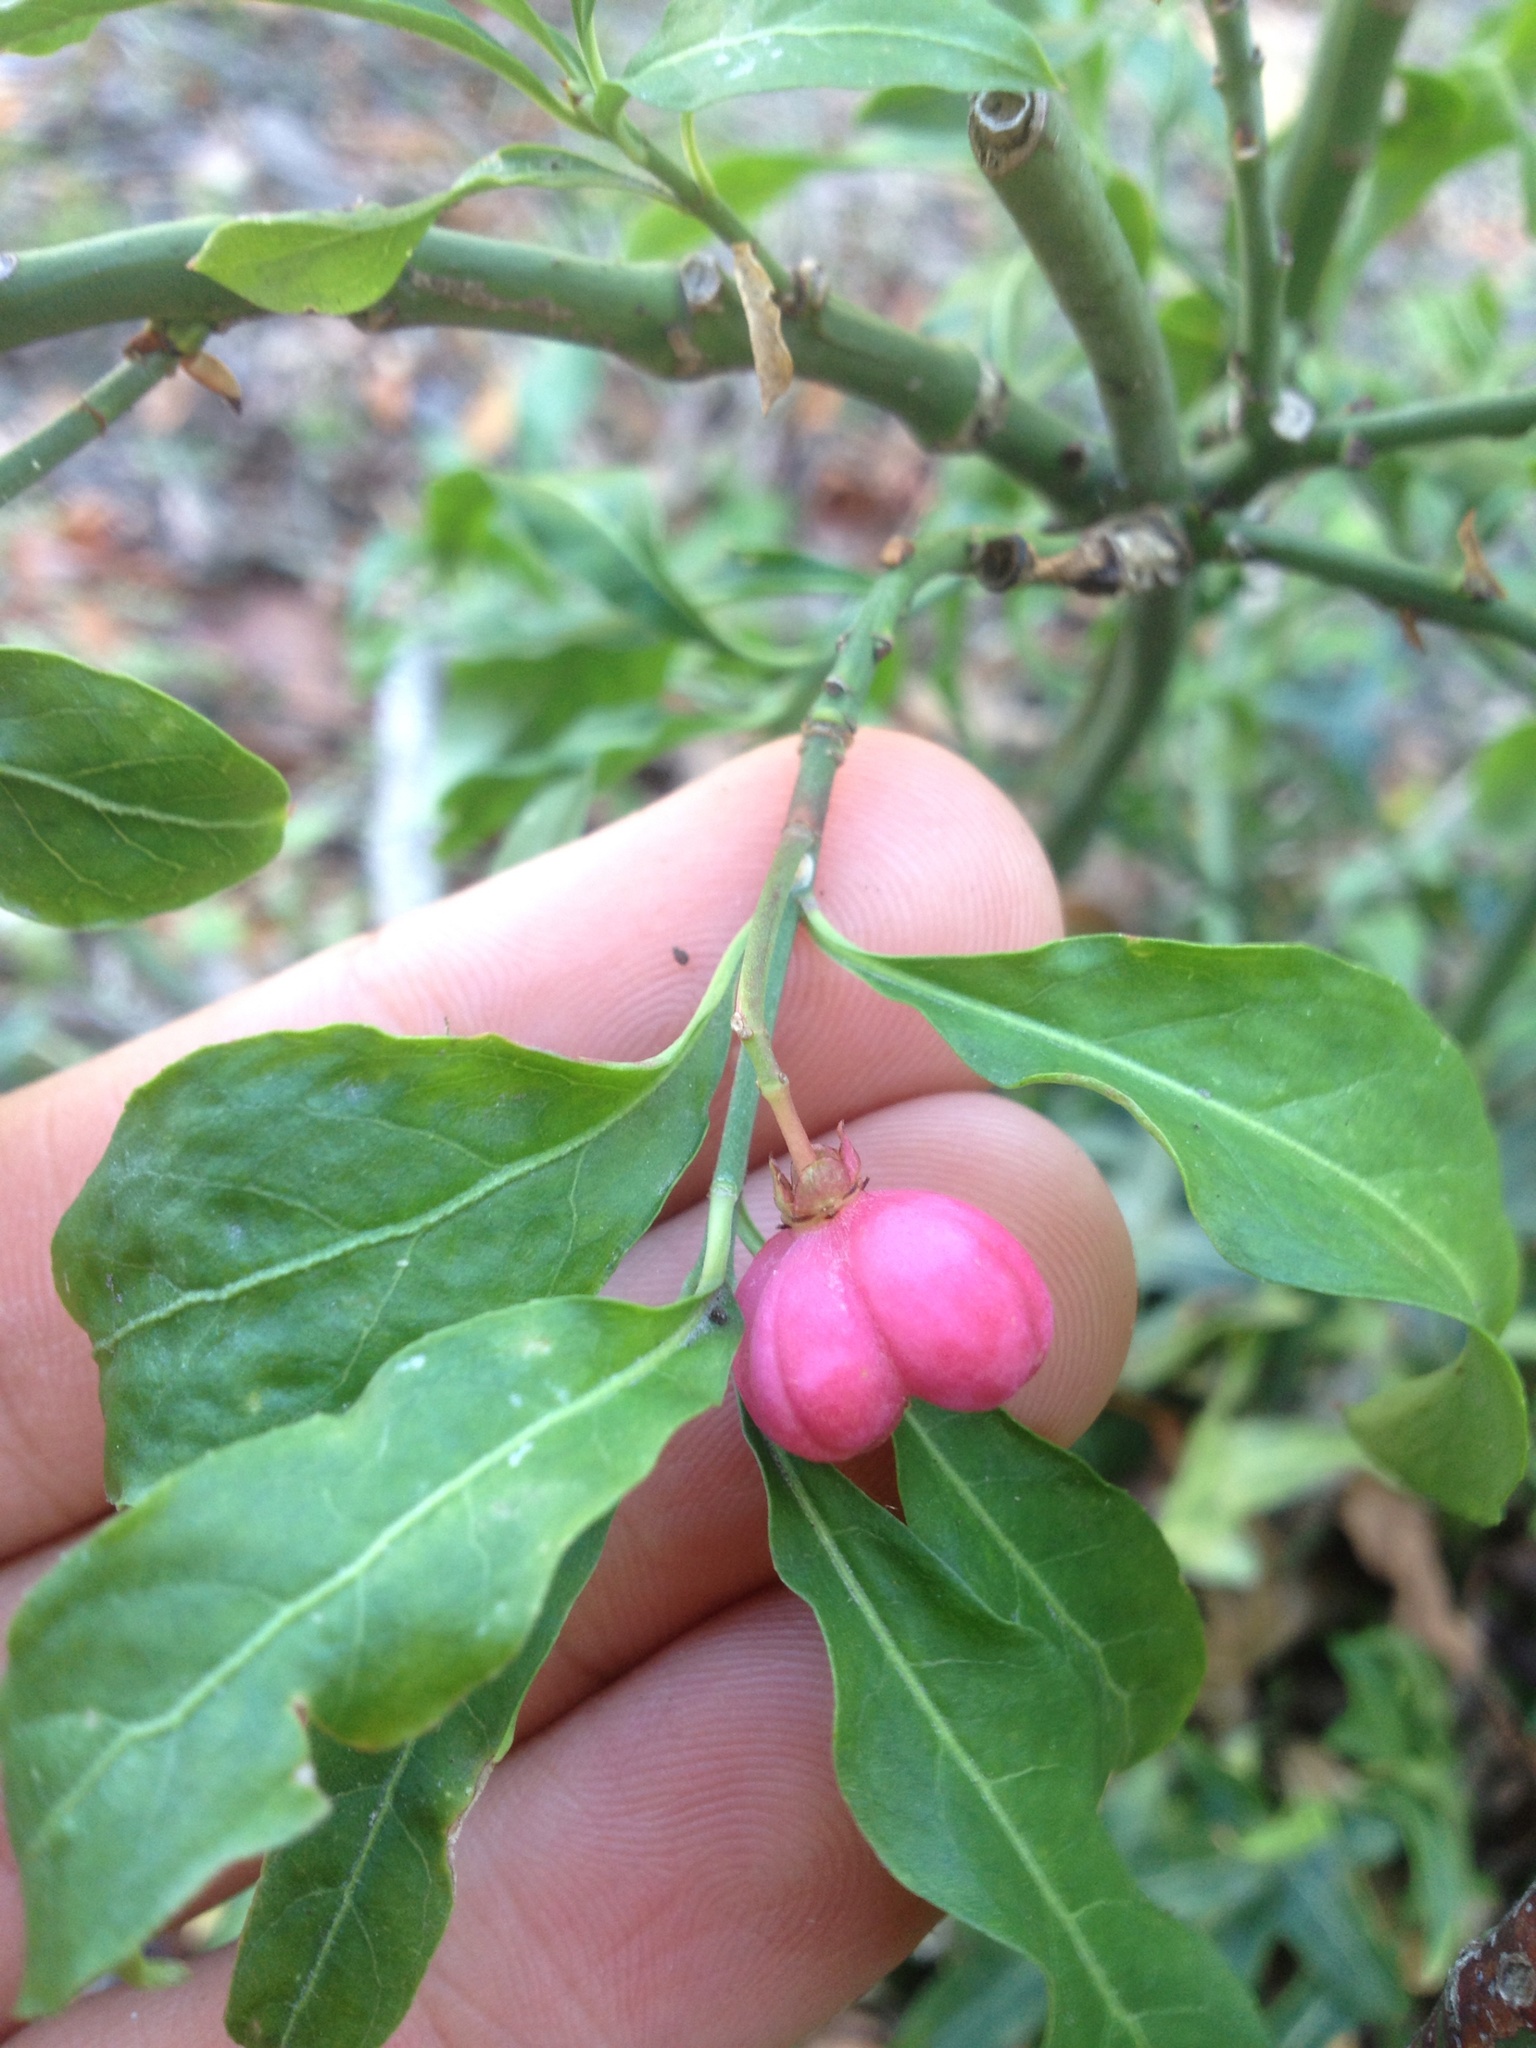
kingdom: Plantae
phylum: Tracheophyta
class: Magnoliopsida
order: Celastrales
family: Celastraceae
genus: Euonymus
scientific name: Euonymus europaeus
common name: Spindle
